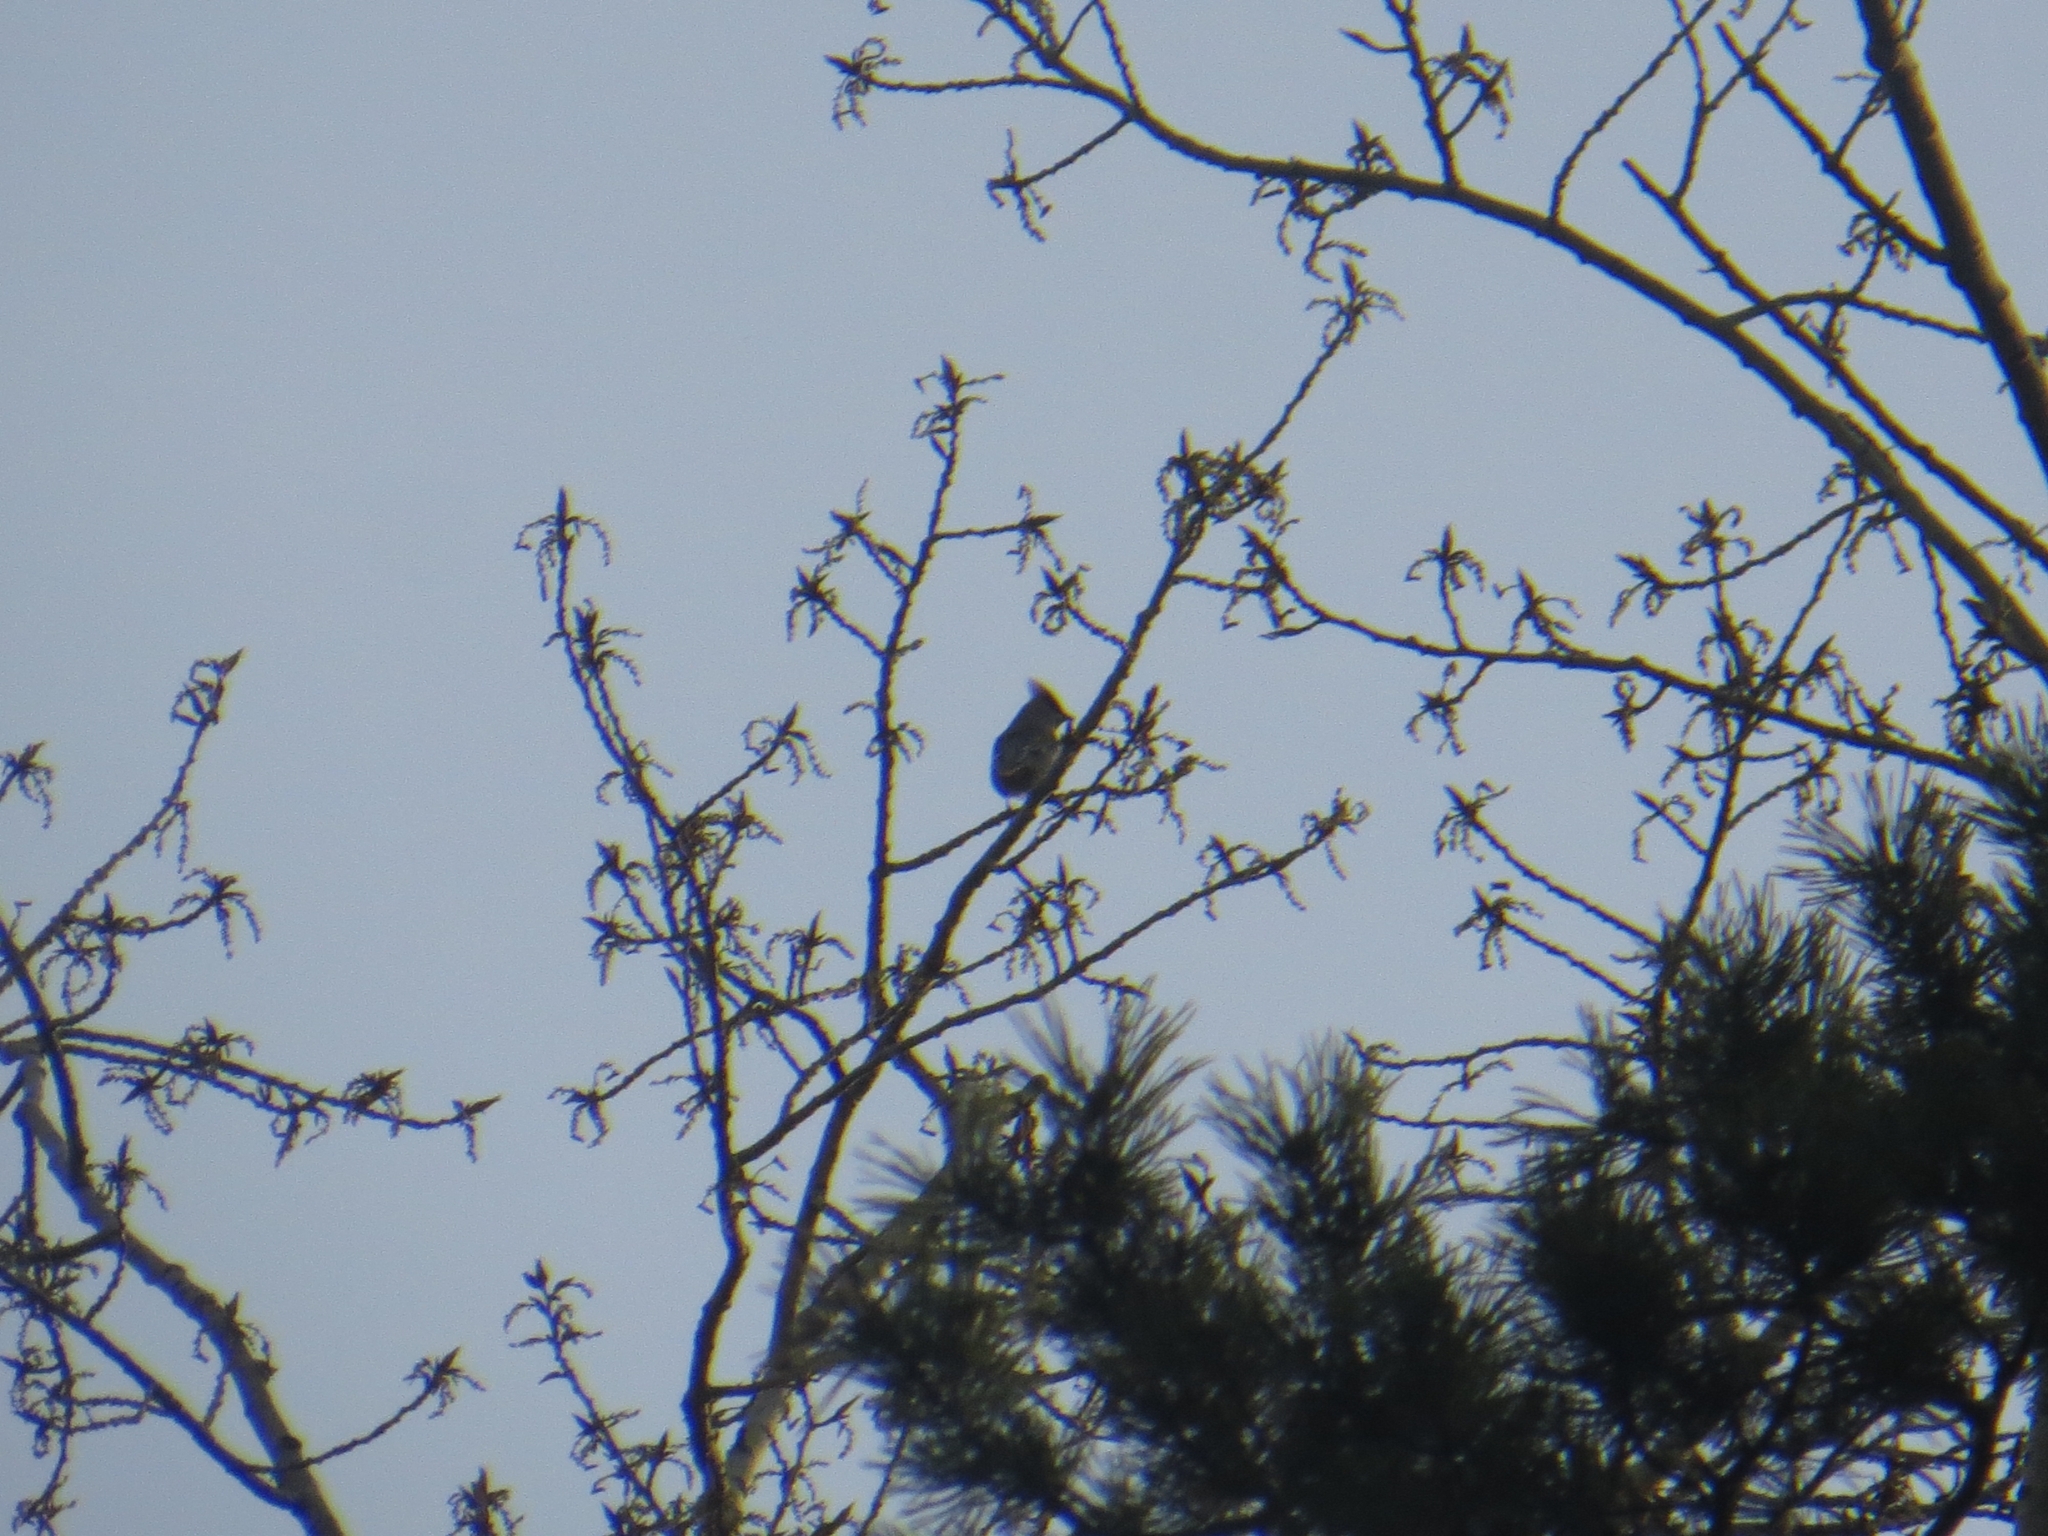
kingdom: Animalia
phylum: Chordata
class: Aves
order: Passeriformes
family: Bombycillidae
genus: Bombycilla
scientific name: Bombycilla garrulus
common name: Bohemian waxwing
